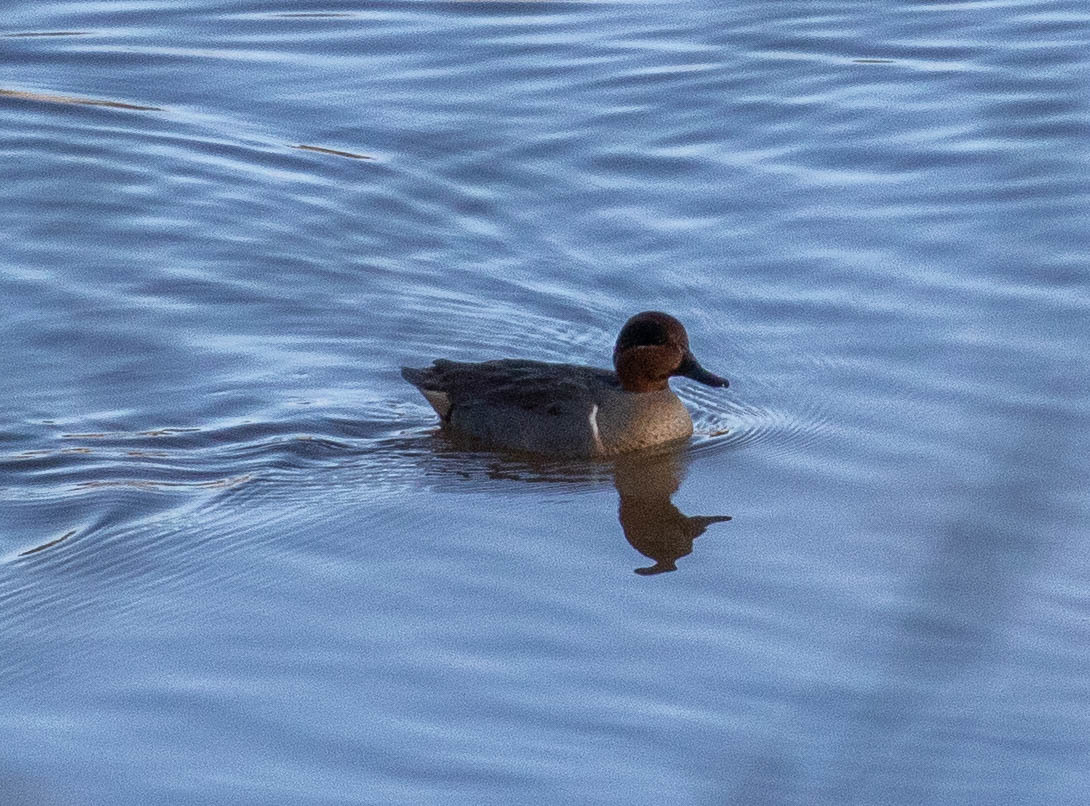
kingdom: Animalia
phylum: Chordata
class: Aves
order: Anseriformes
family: Anatidae
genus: Anas
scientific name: Anas crecca
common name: Eurasian teal
